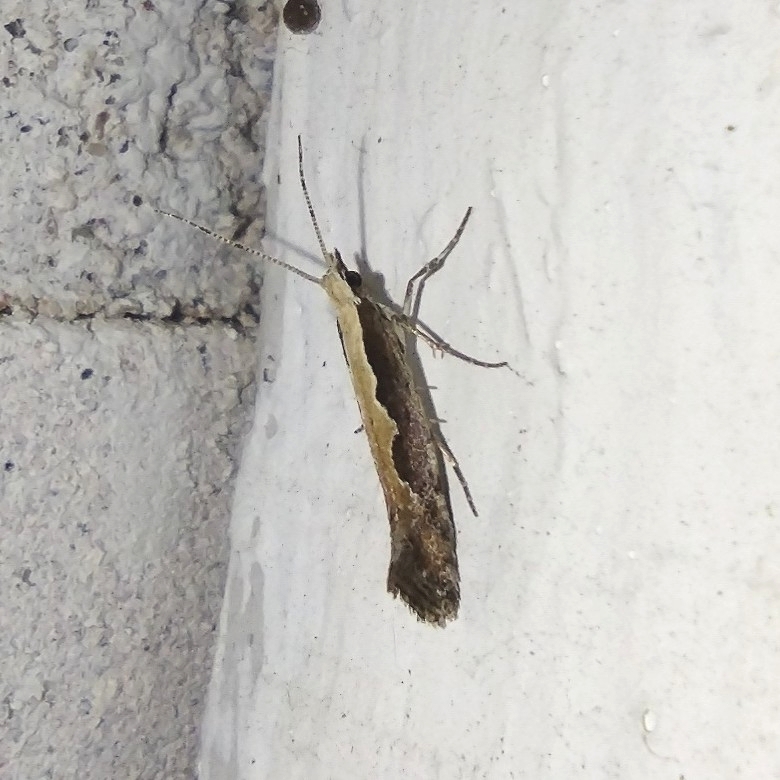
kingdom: Animalia
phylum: Arthropoda
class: Insecta
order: Lepidoptera
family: Plutellidae
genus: Plutella
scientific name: Plutella xylostella
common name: Diamond-back moth
